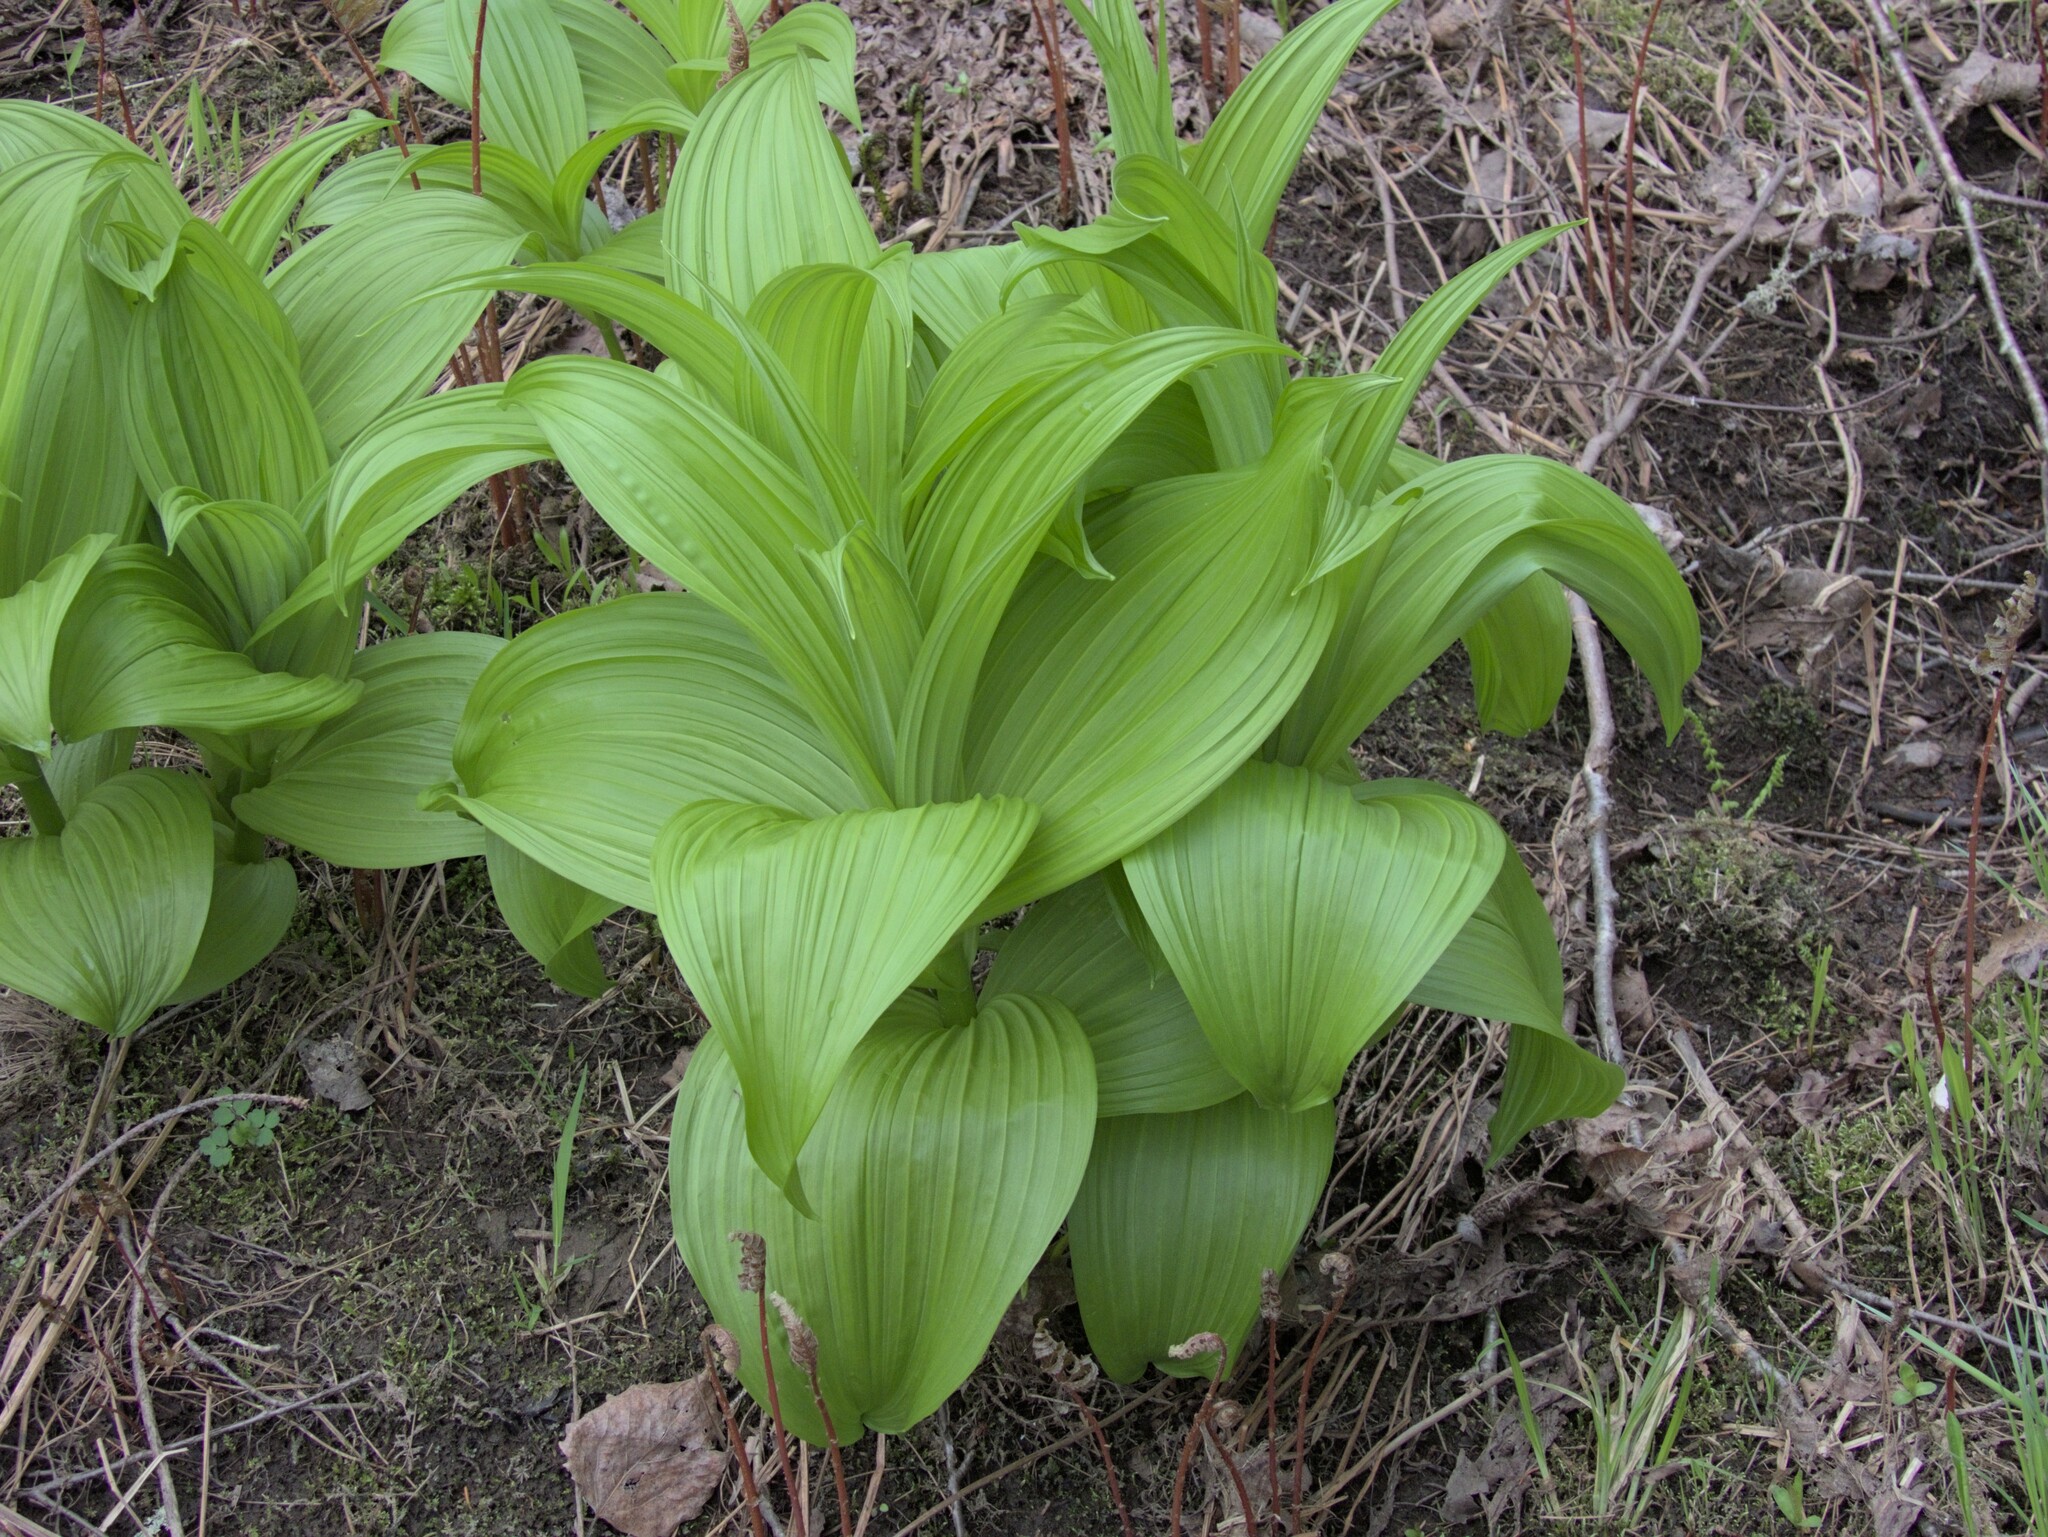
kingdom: Plantae
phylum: Tracheophyta
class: Liliopsida
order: Liliales
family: Melanthiaceae
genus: Veratrum
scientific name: Veratrum viride
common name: American false hellebore
